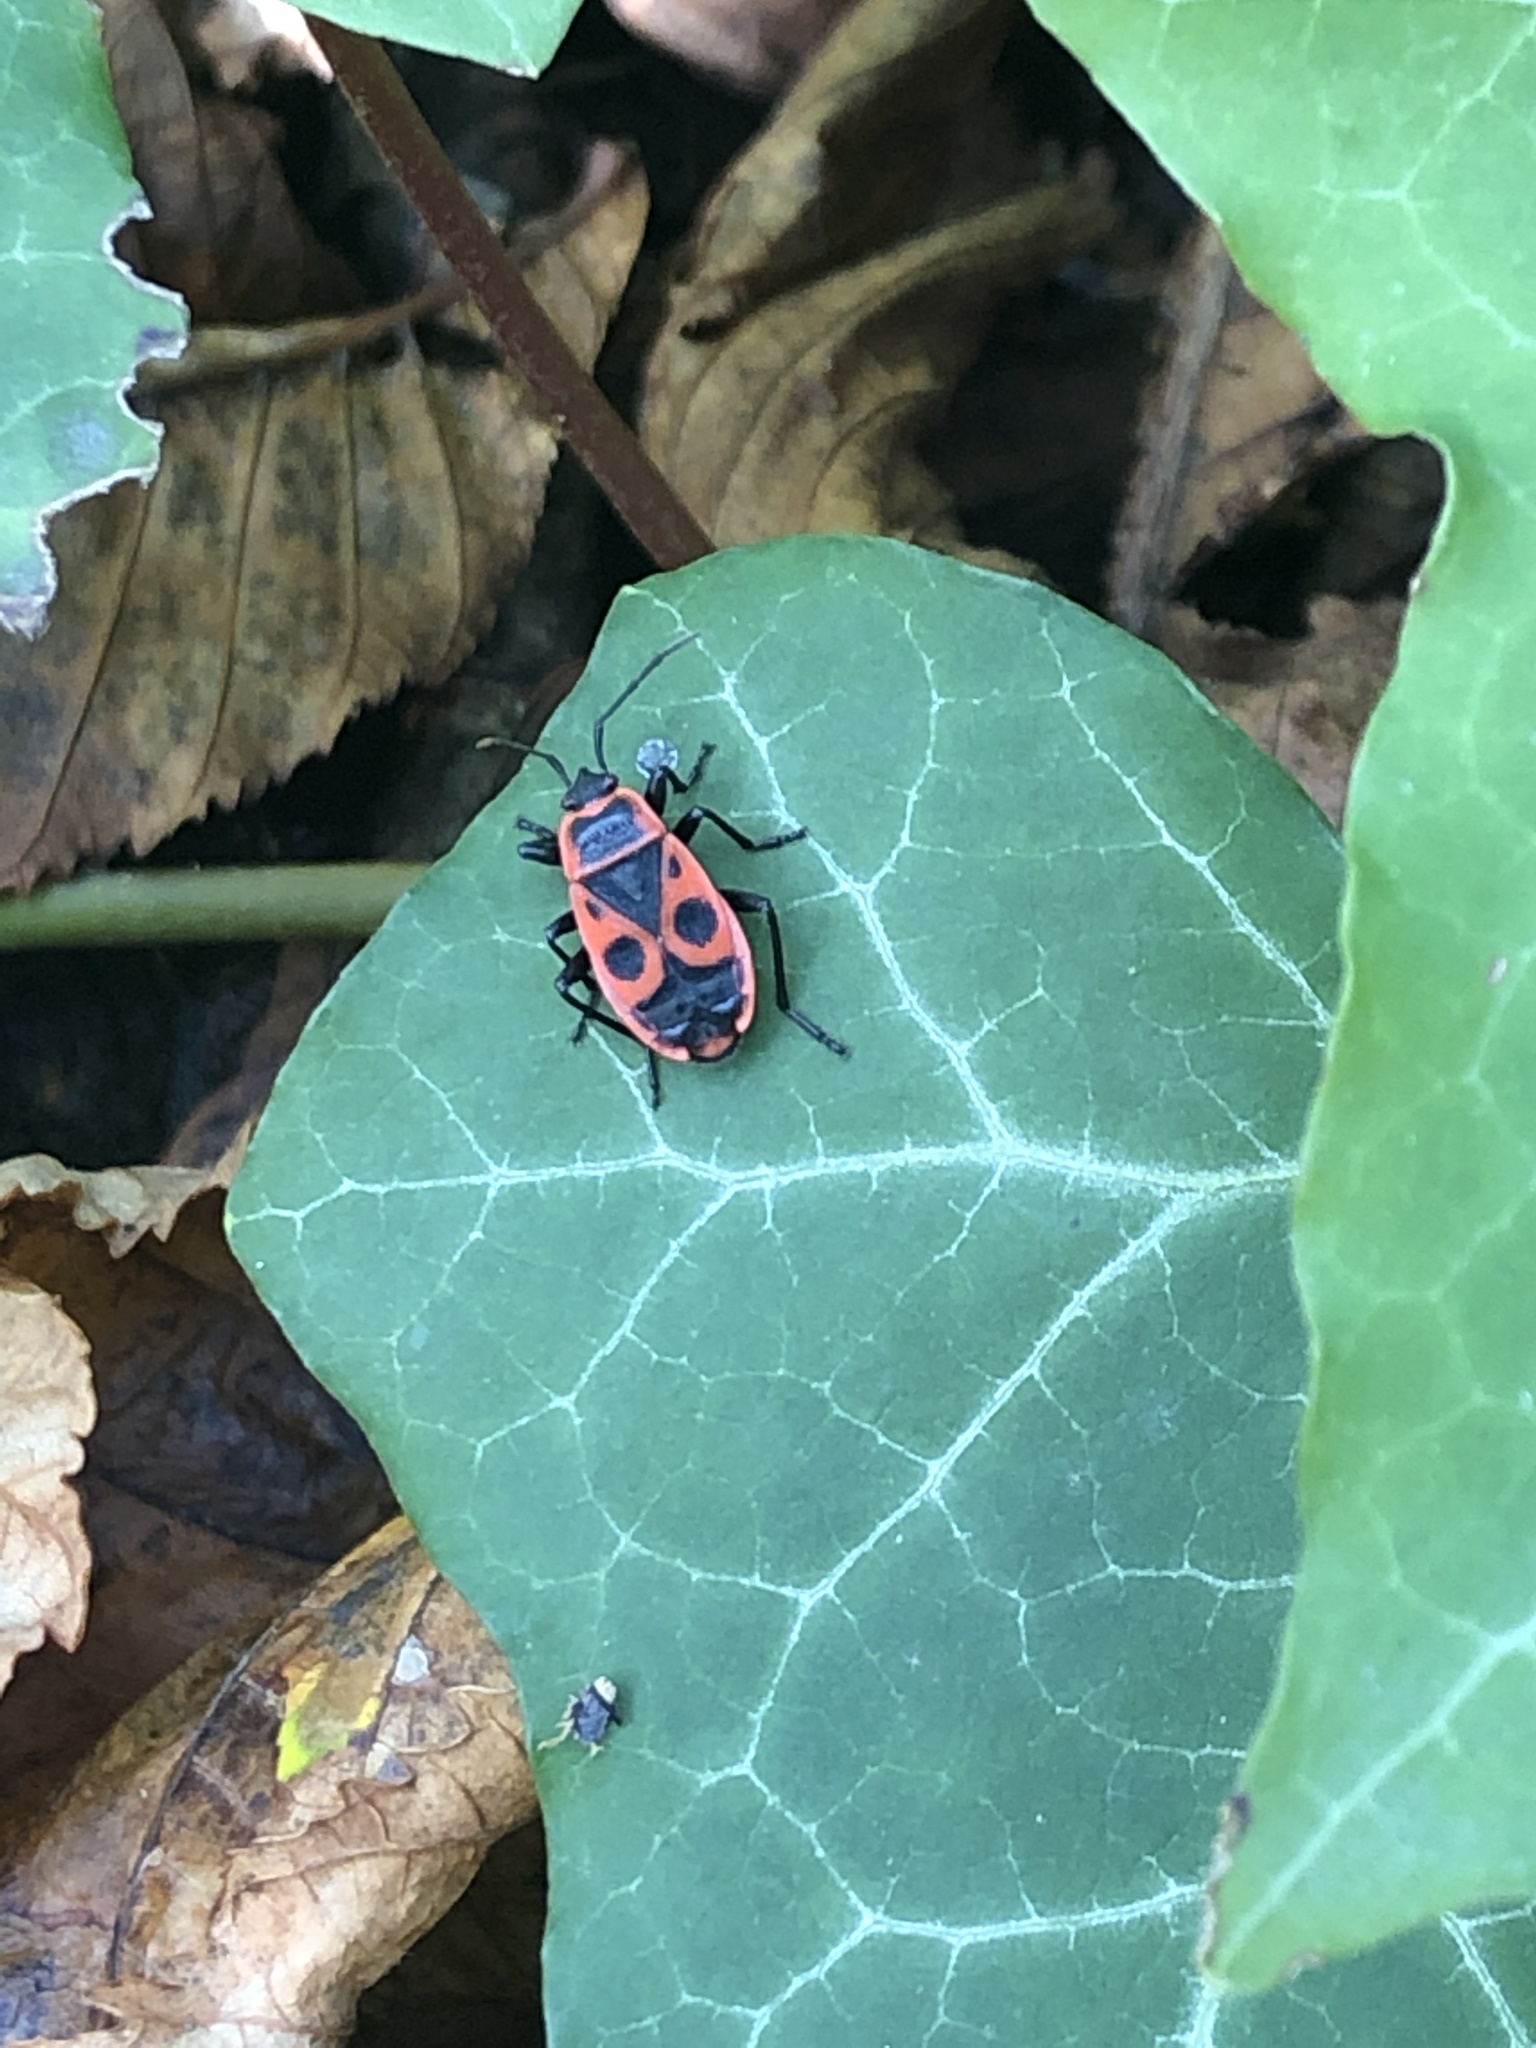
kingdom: Animalia
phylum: Arthropoda
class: Insecta
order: Hemiptera
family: Pyrrhocoridae
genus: Pyrrhocoris
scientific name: Pyrrhocoris apterus
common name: Firebug
